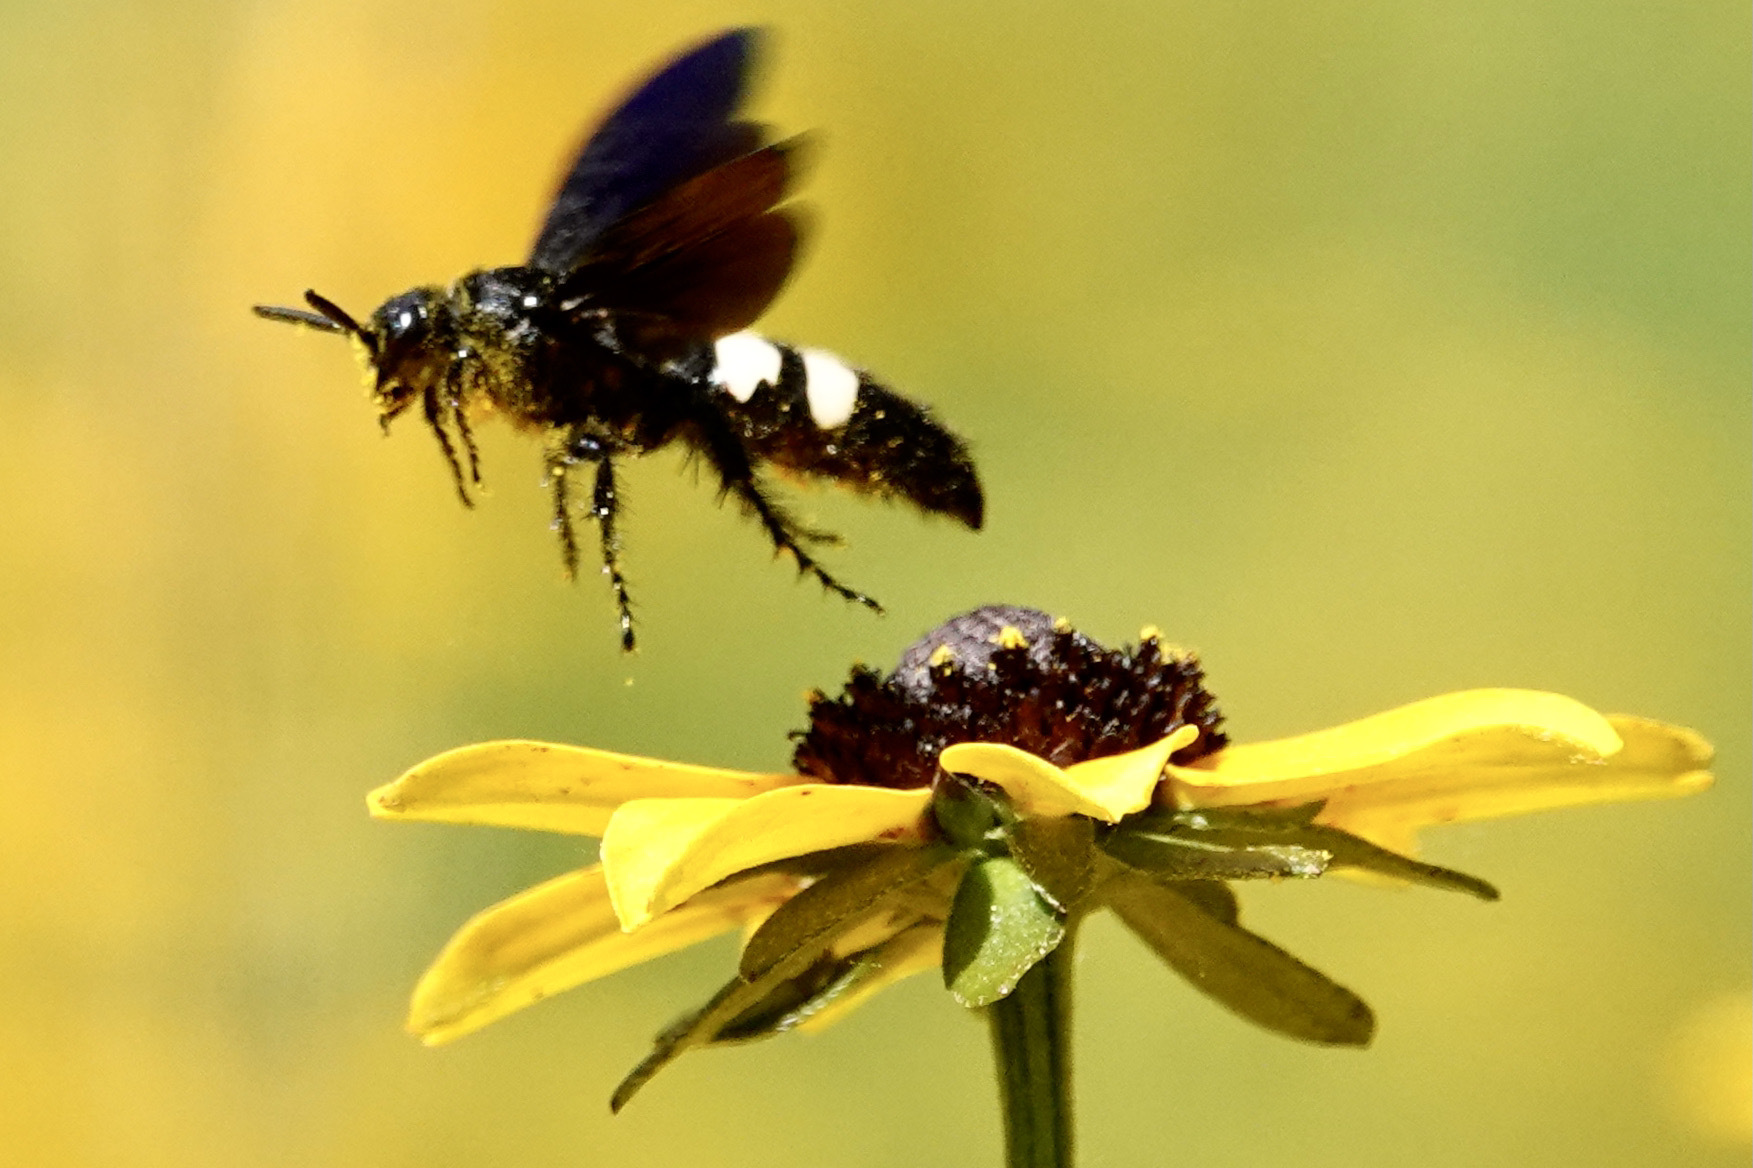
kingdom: Animalia
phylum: Arthropoda
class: Insecta
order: Hymenoptera
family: Scoliidae
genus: Scolia
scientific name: Scolia bicincta
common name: Double-banded scoliid wasp
